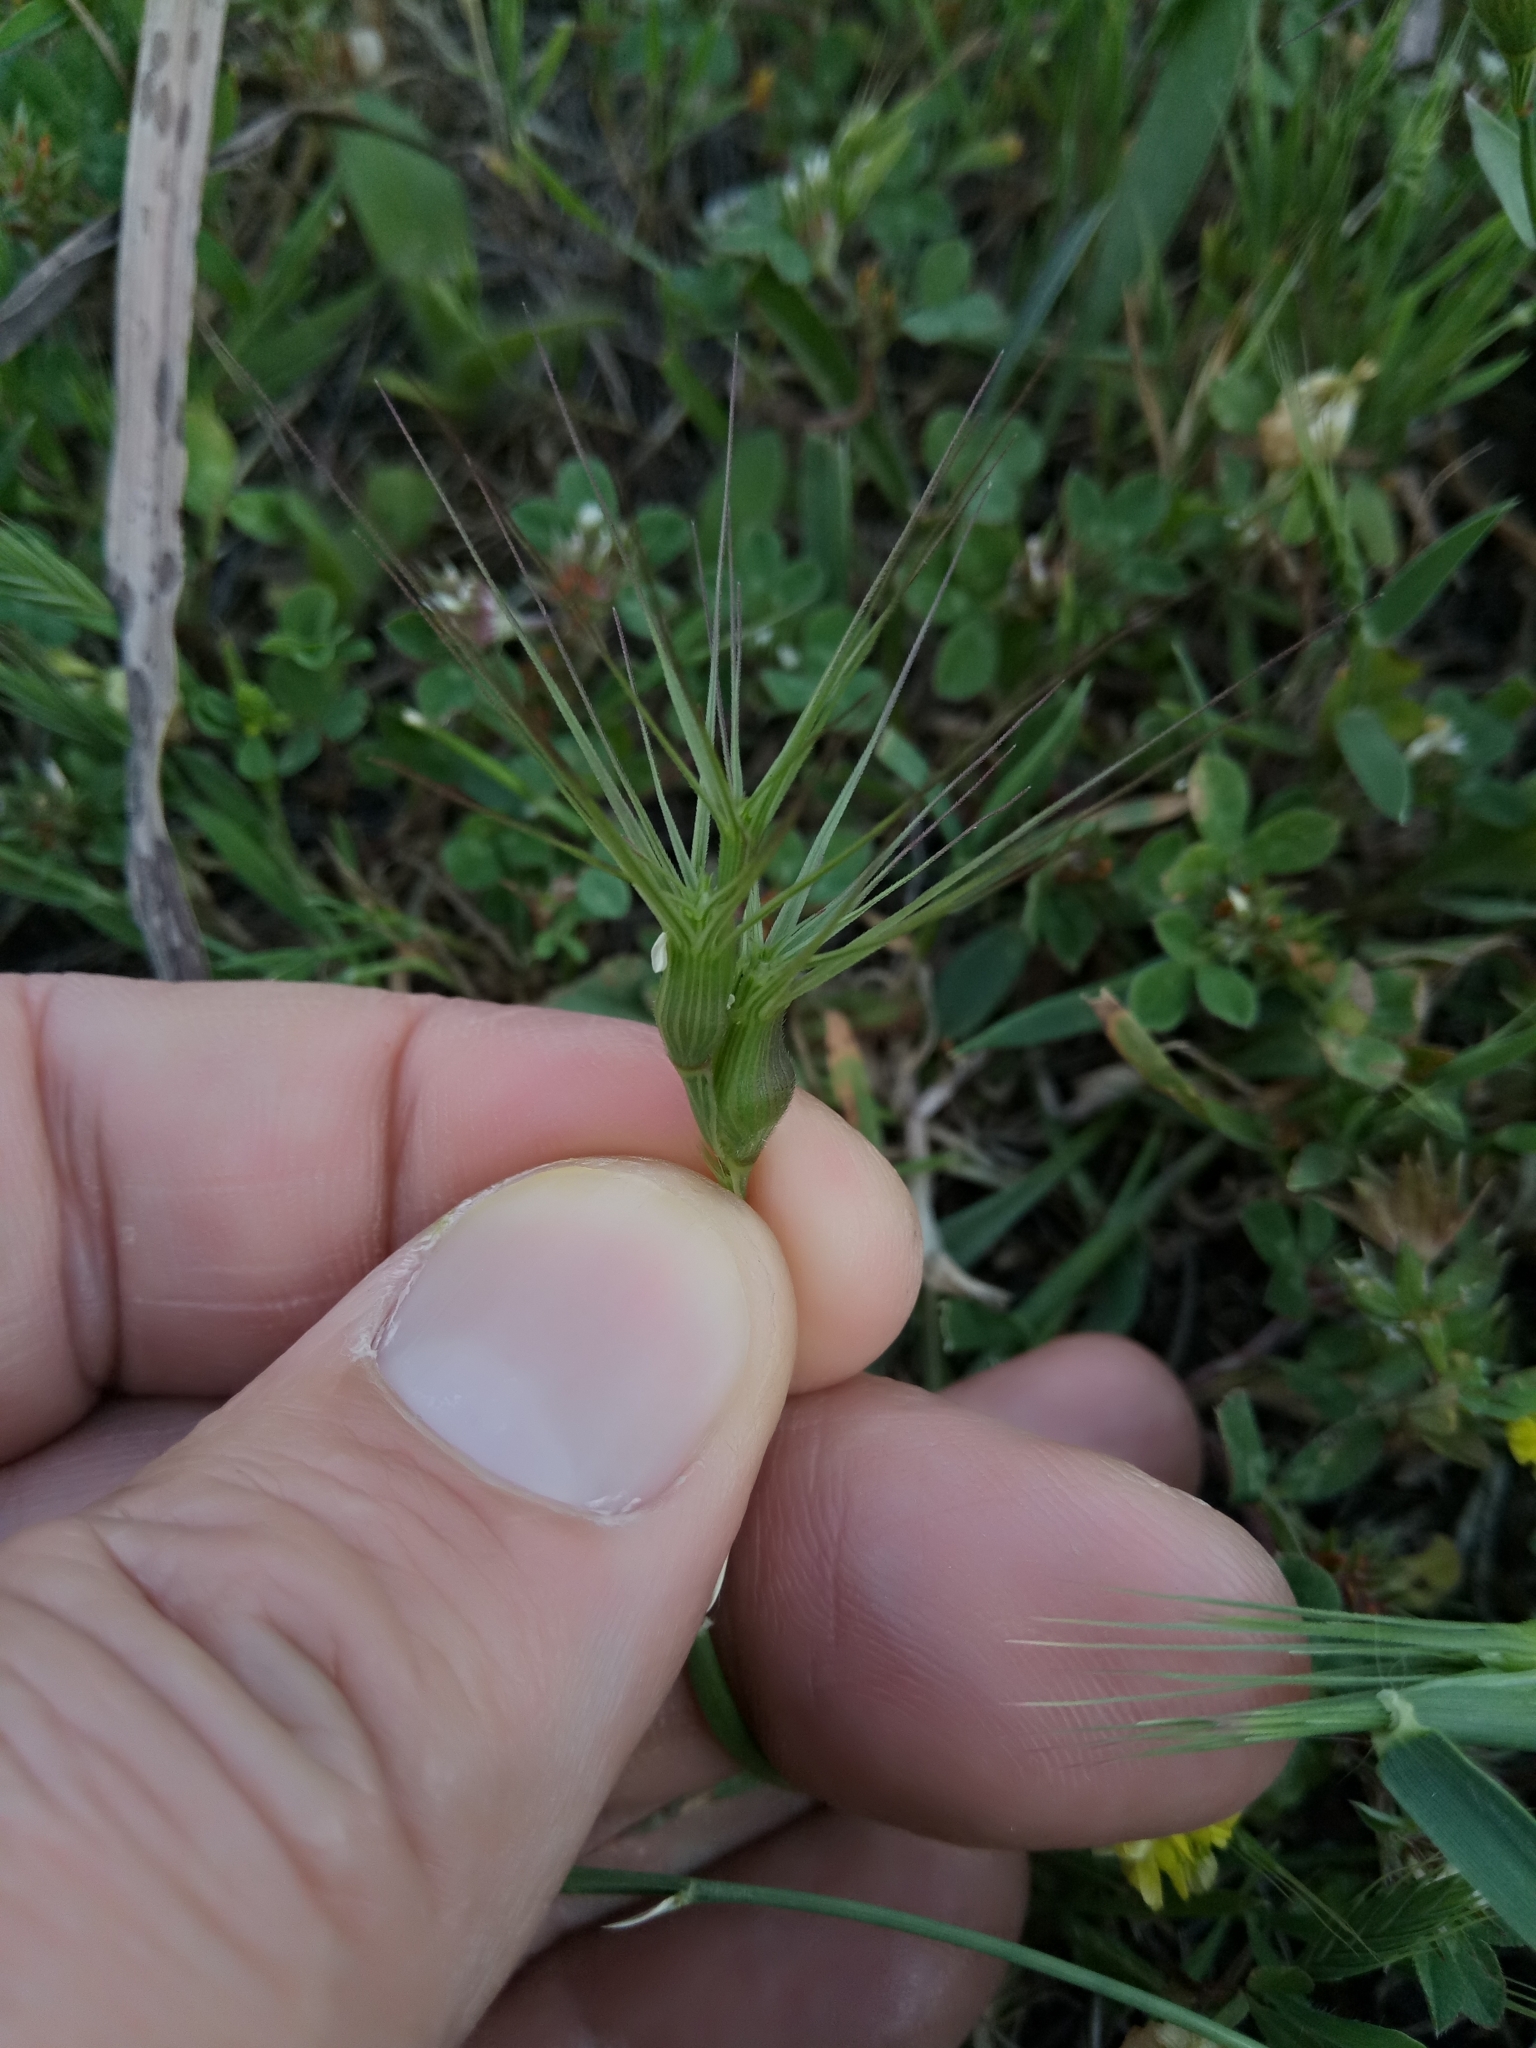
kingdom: Plantae
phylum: Tracheophyta
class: Liliopsida
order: Poales
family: Poaceae
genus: Aegilops
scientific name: Aegilops geniculata
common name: Ovate goat grass
